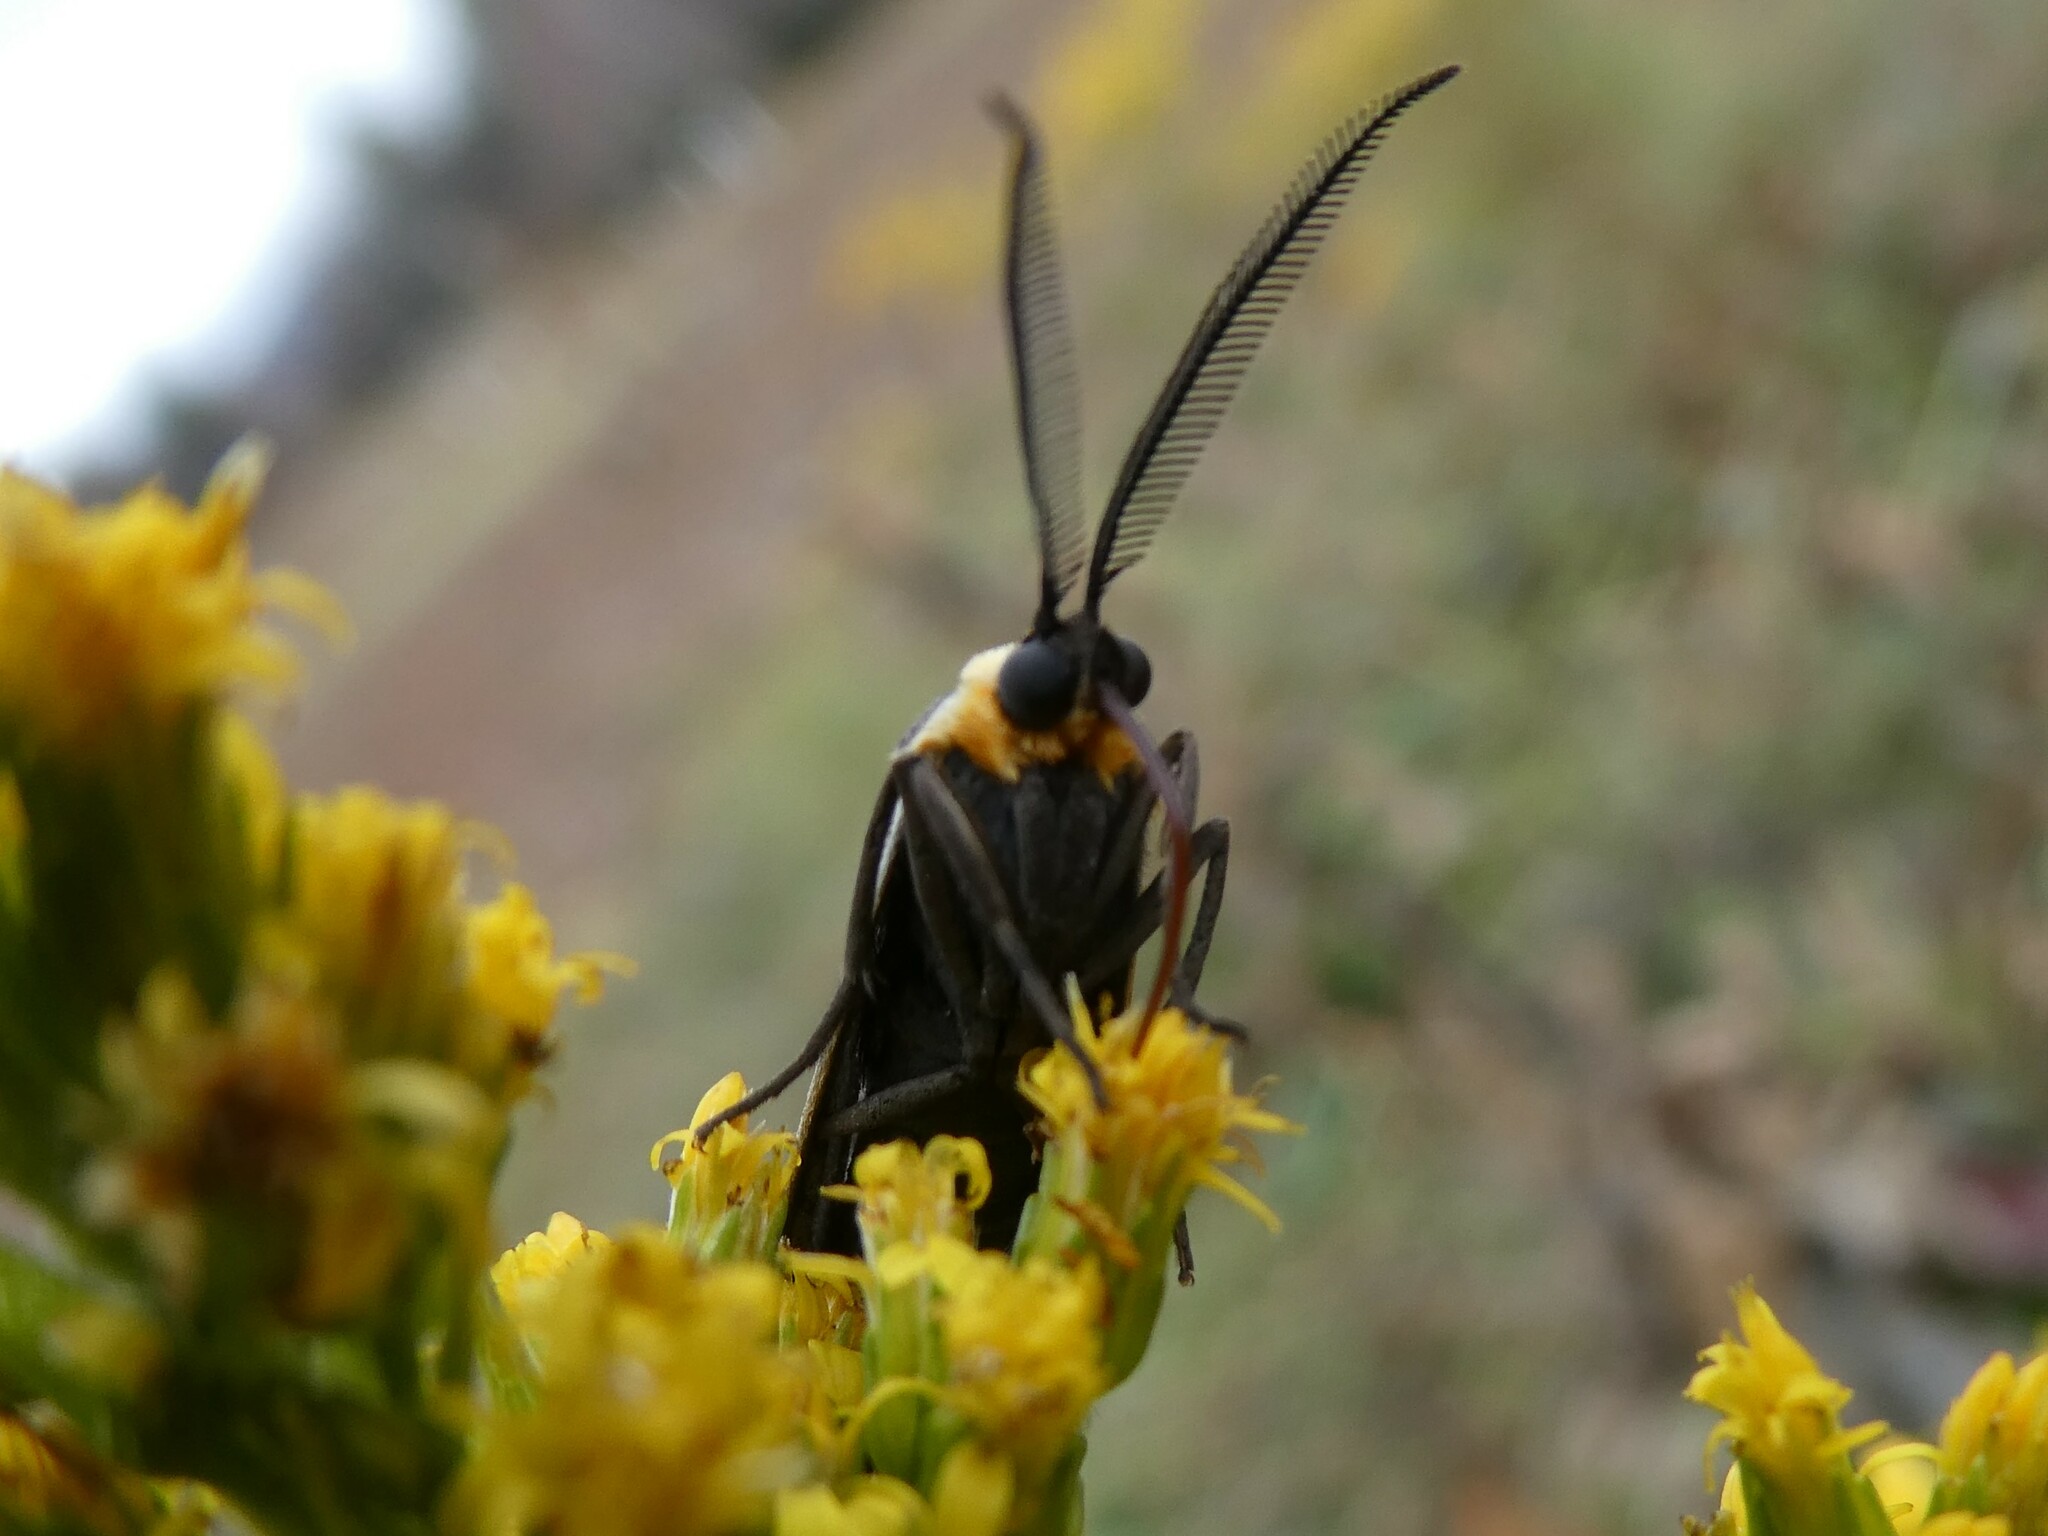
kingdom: Animalia
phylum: Arthropoda
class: Insecta
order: Lepidoptera
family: Erebidae
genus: Cisseps
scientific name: Cisseps fulvicollis
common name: Yellow-collared scape moth
